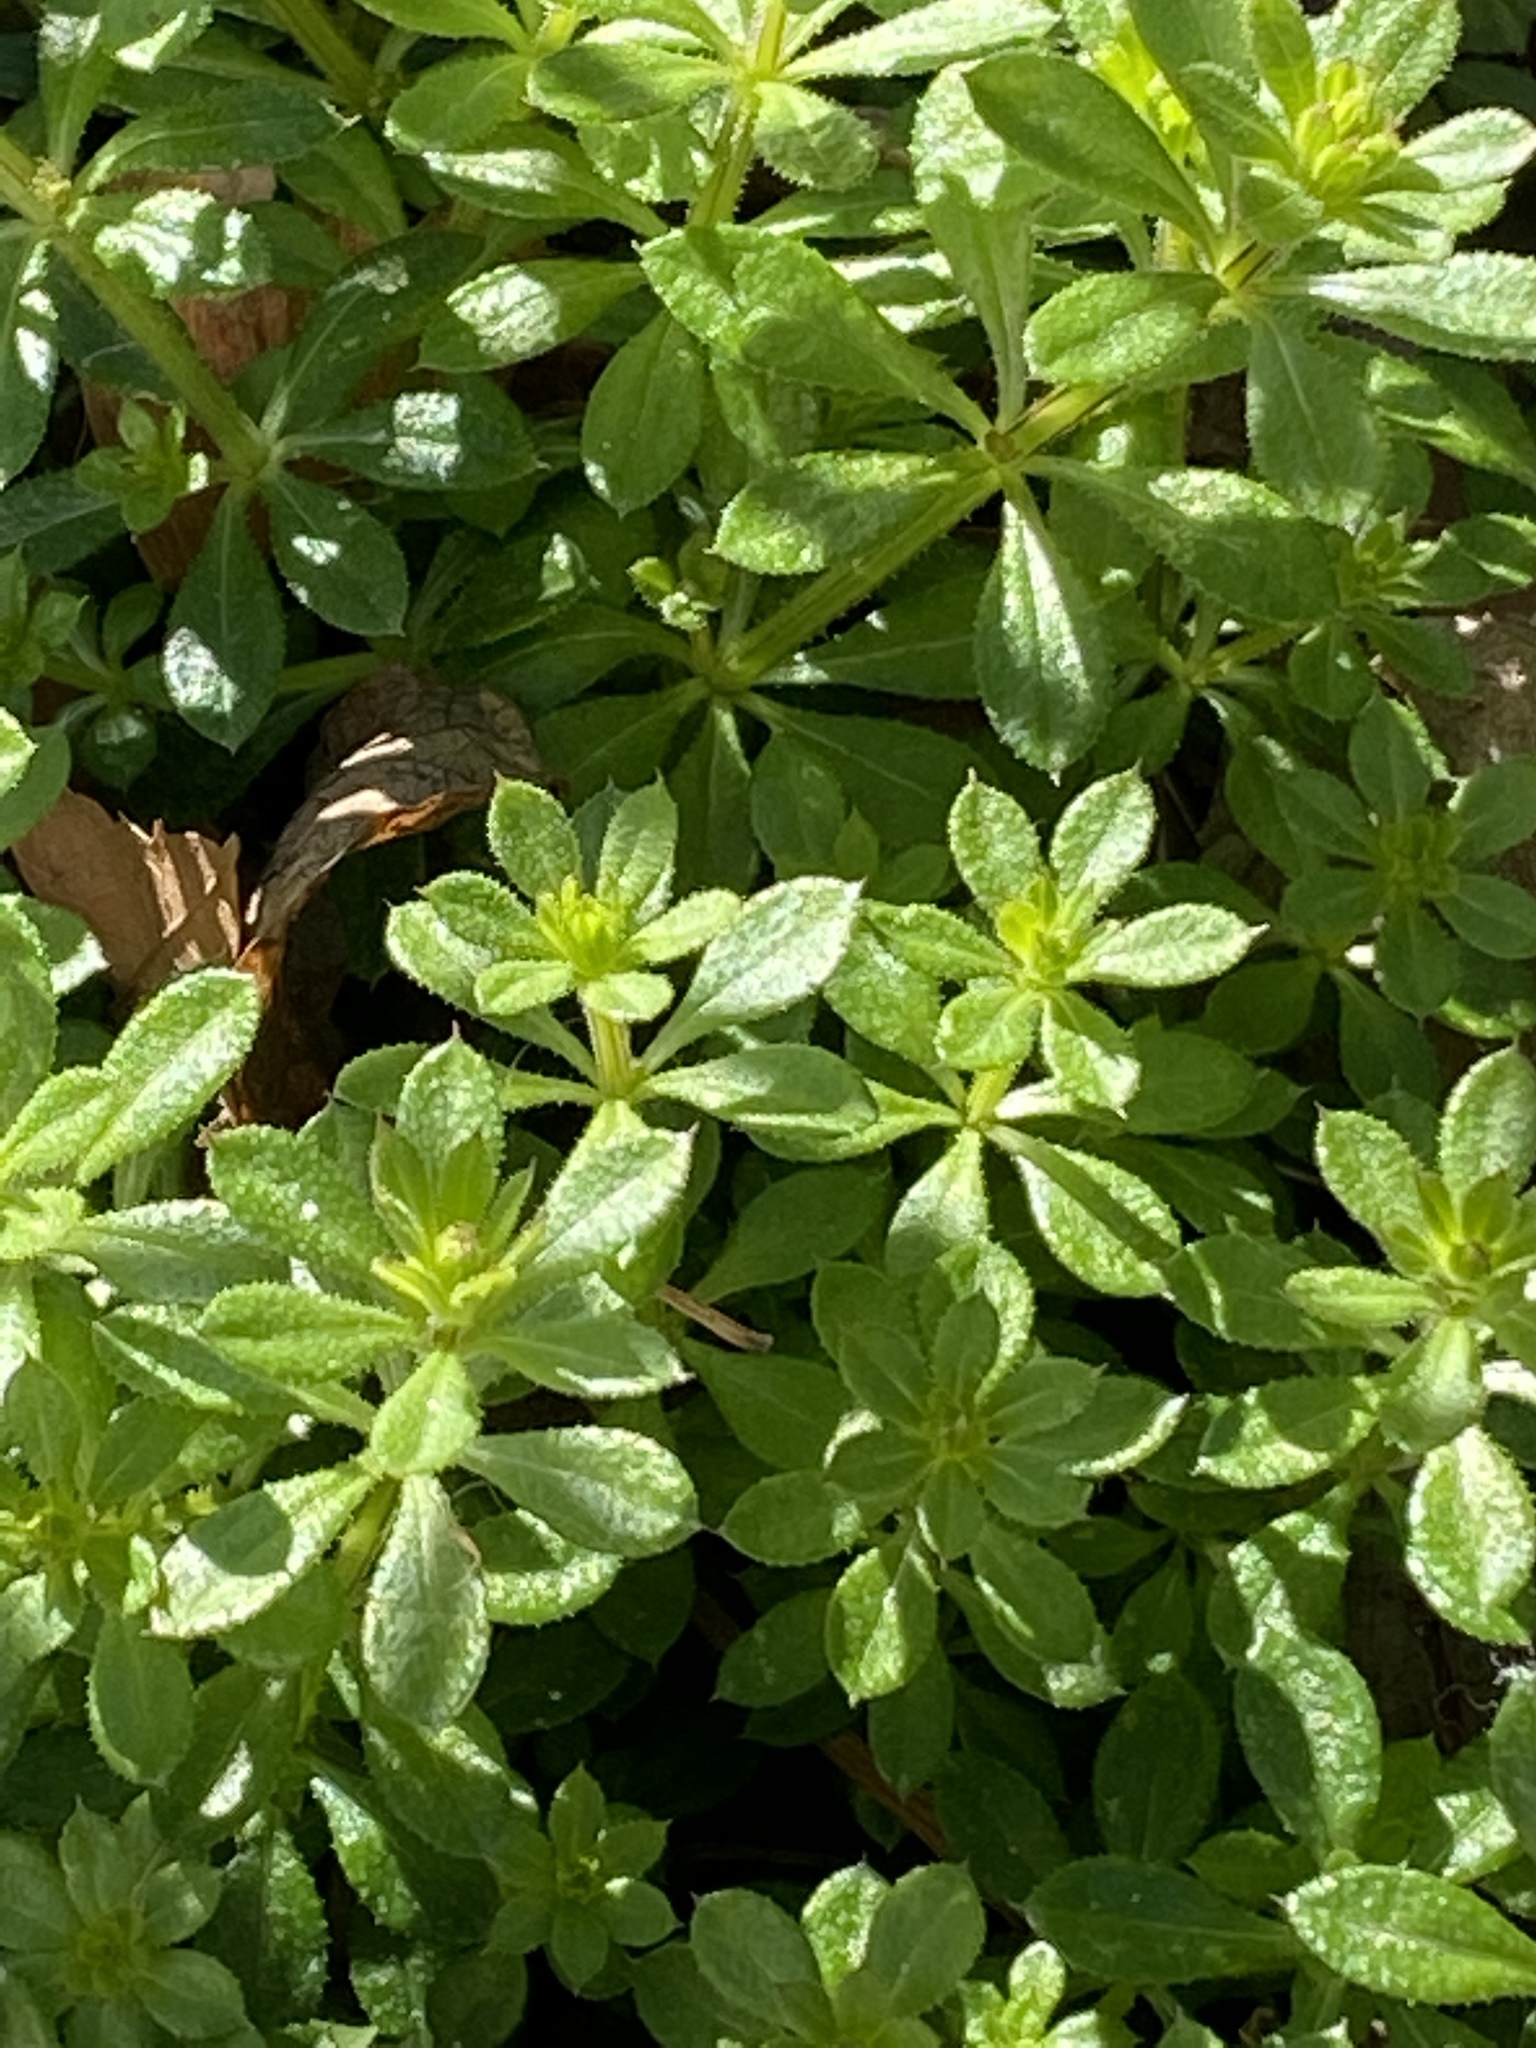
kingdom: Plantae
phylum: Tracheophyta
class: Magnoliopsida
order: Gentianales
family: Rubiaceae
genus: Galium
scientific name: Galium aparine
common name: Cleavers
